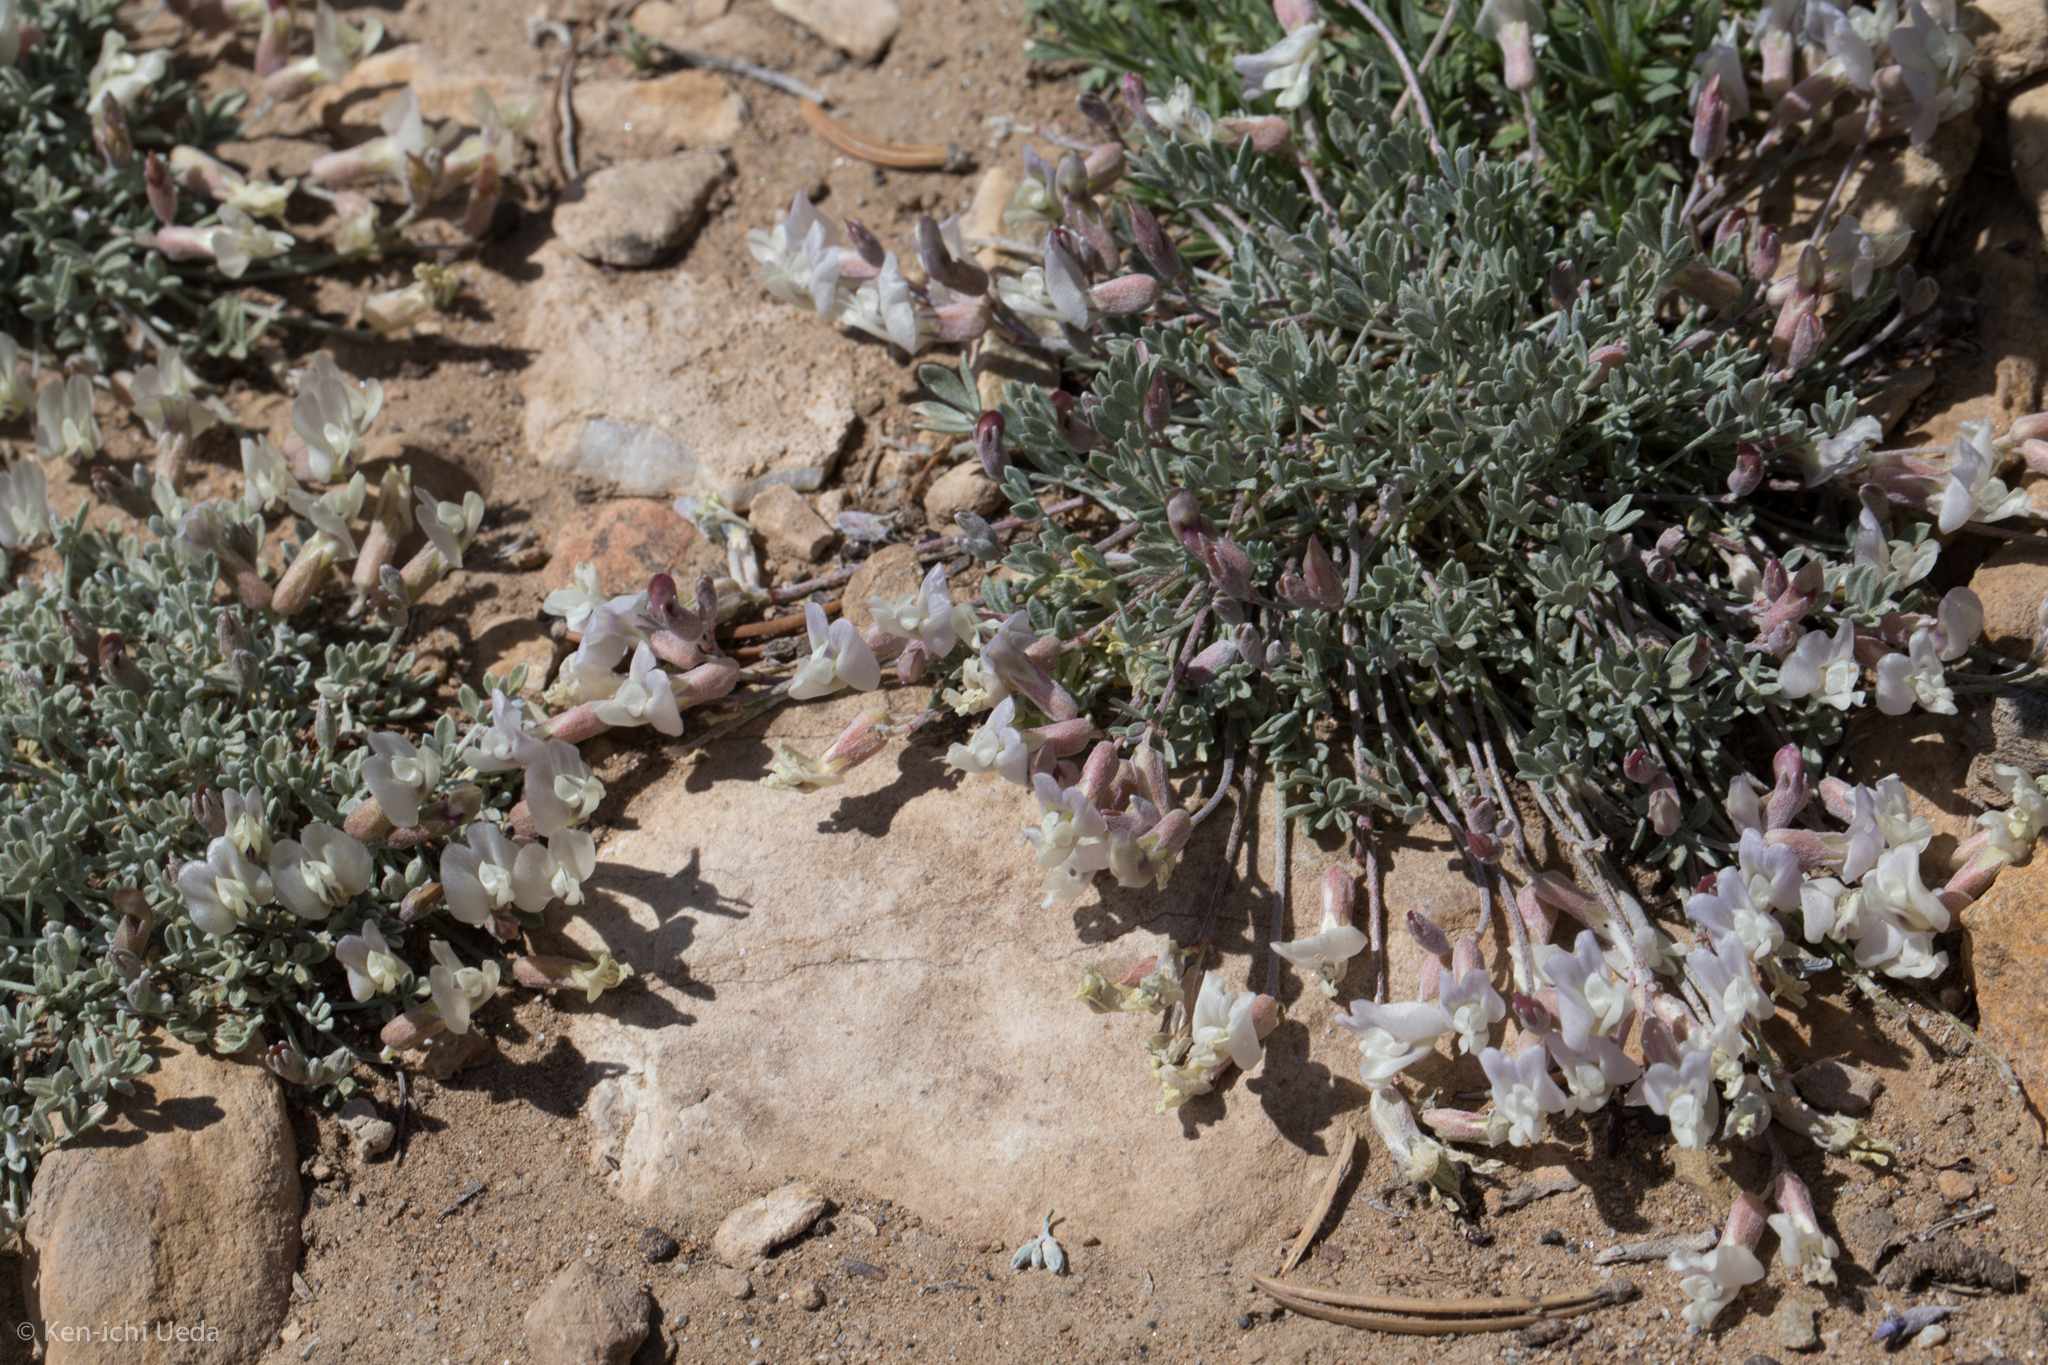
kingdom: Plantae
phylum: Tracheophyta
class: Magnoliopsida
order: Fabales
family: Fabaceae
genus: Astragalus
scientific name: Astragalus calycosus
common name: King's milkvetch
